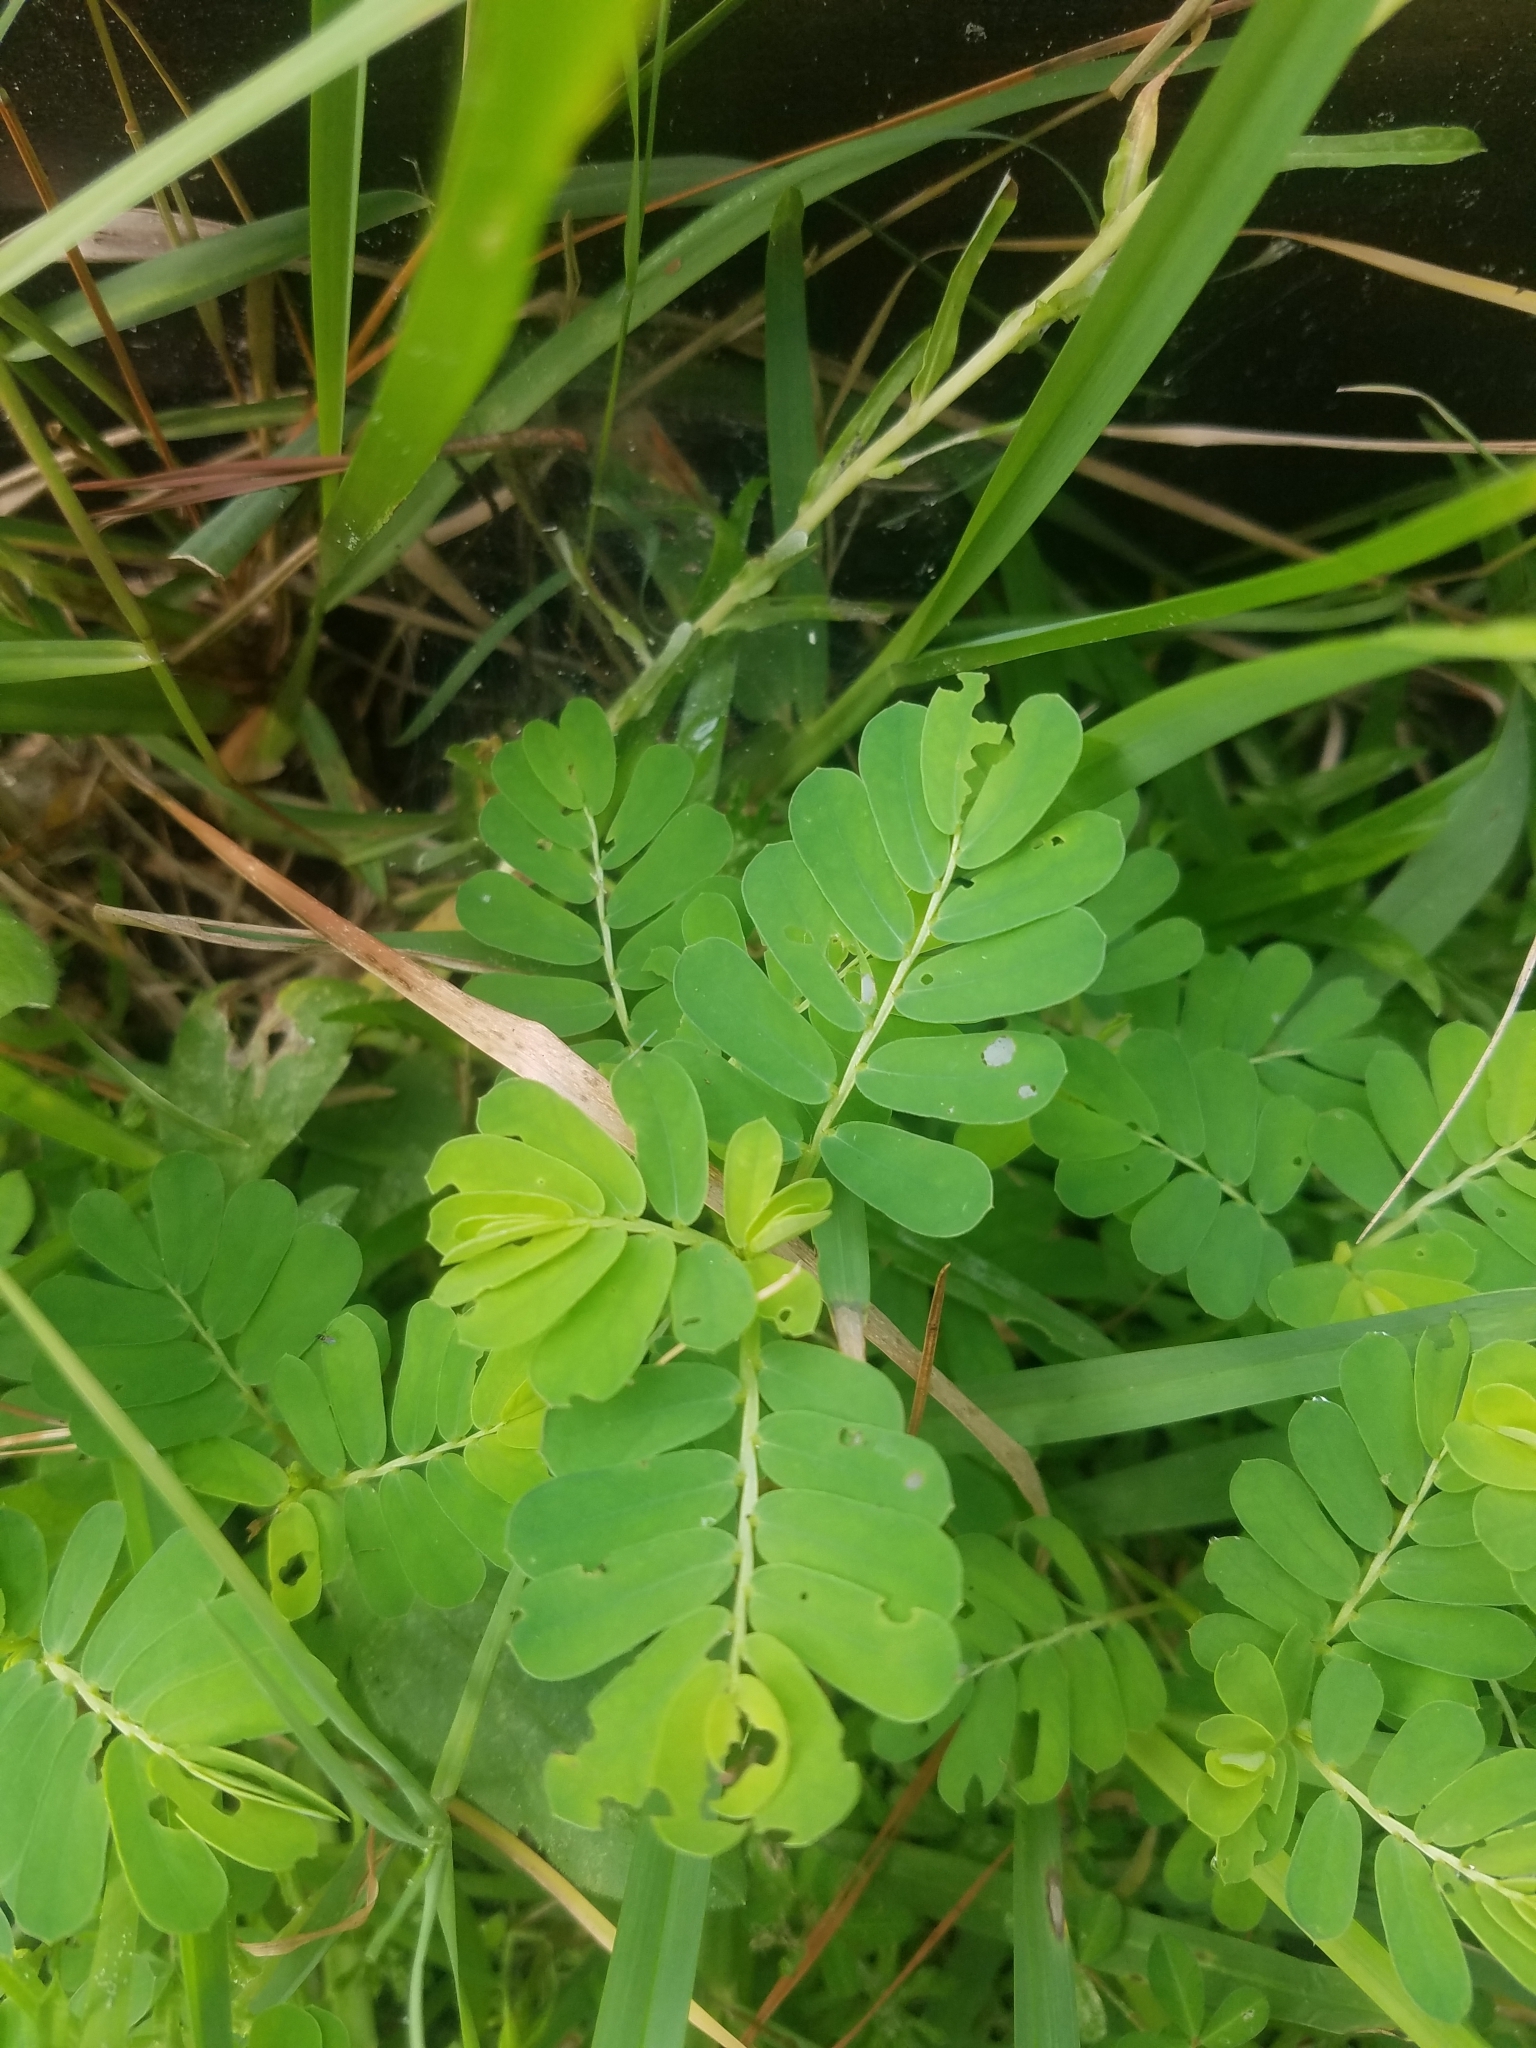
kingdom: Plantae
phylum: Tracheophyta
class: Magnoliopsida
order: Malpighiales
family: Phyllanthaceae
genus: Phyllanthus
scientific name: Phyllanthus urinaria
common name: Chamber bitter
